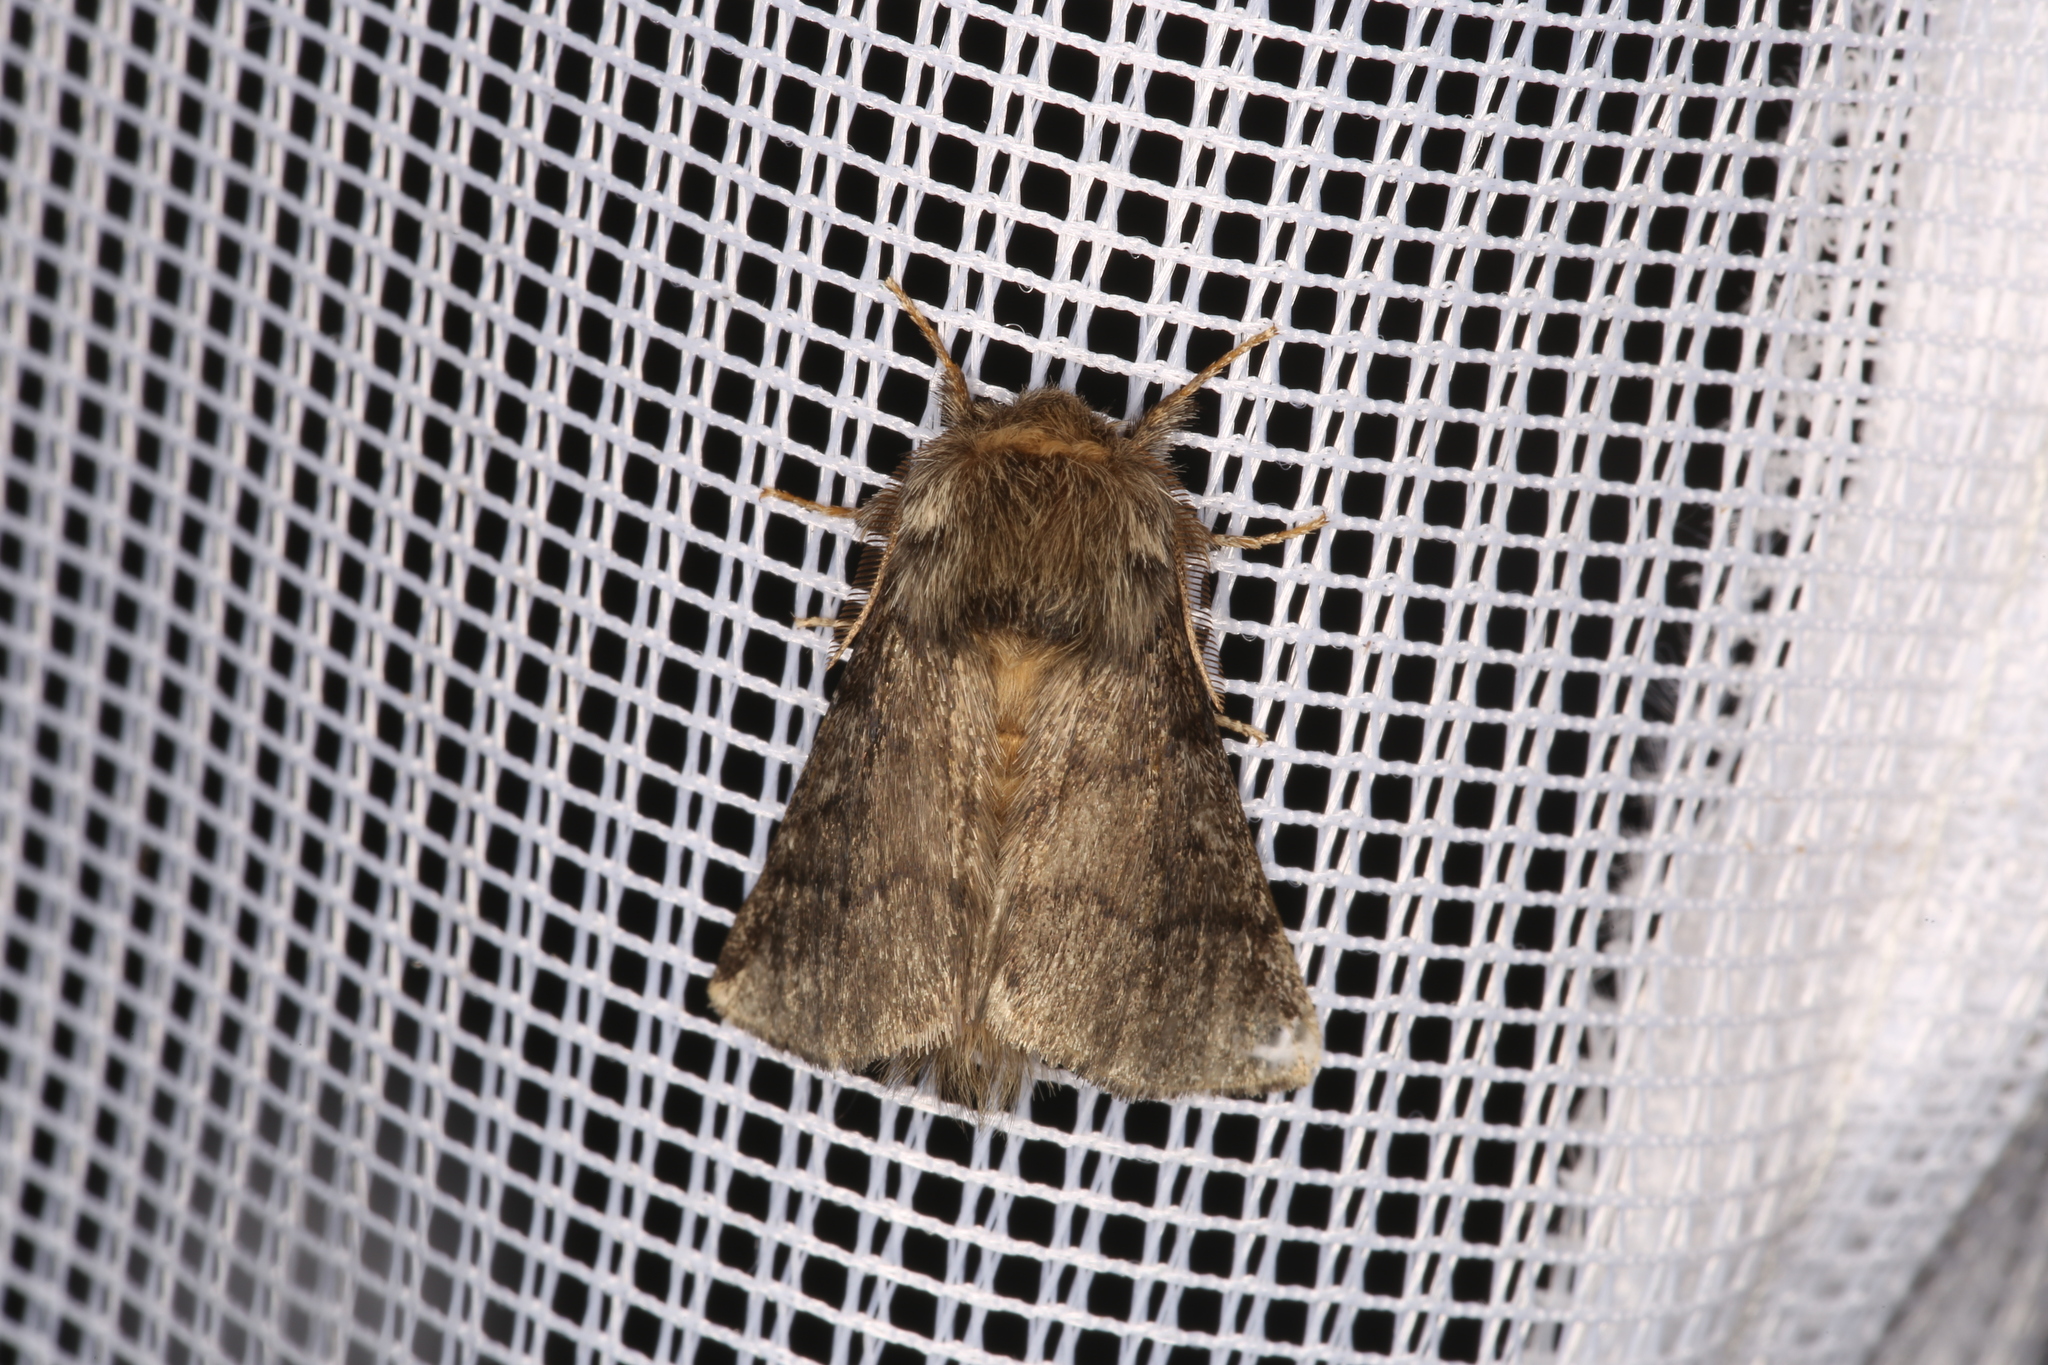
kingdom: Animalia
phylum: Arthropoda
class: Insecta
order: Lepidoptera
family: Notodontidae
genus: Thaumetopoea
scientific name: Thaumetopoea processionea
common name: Oak processionea
